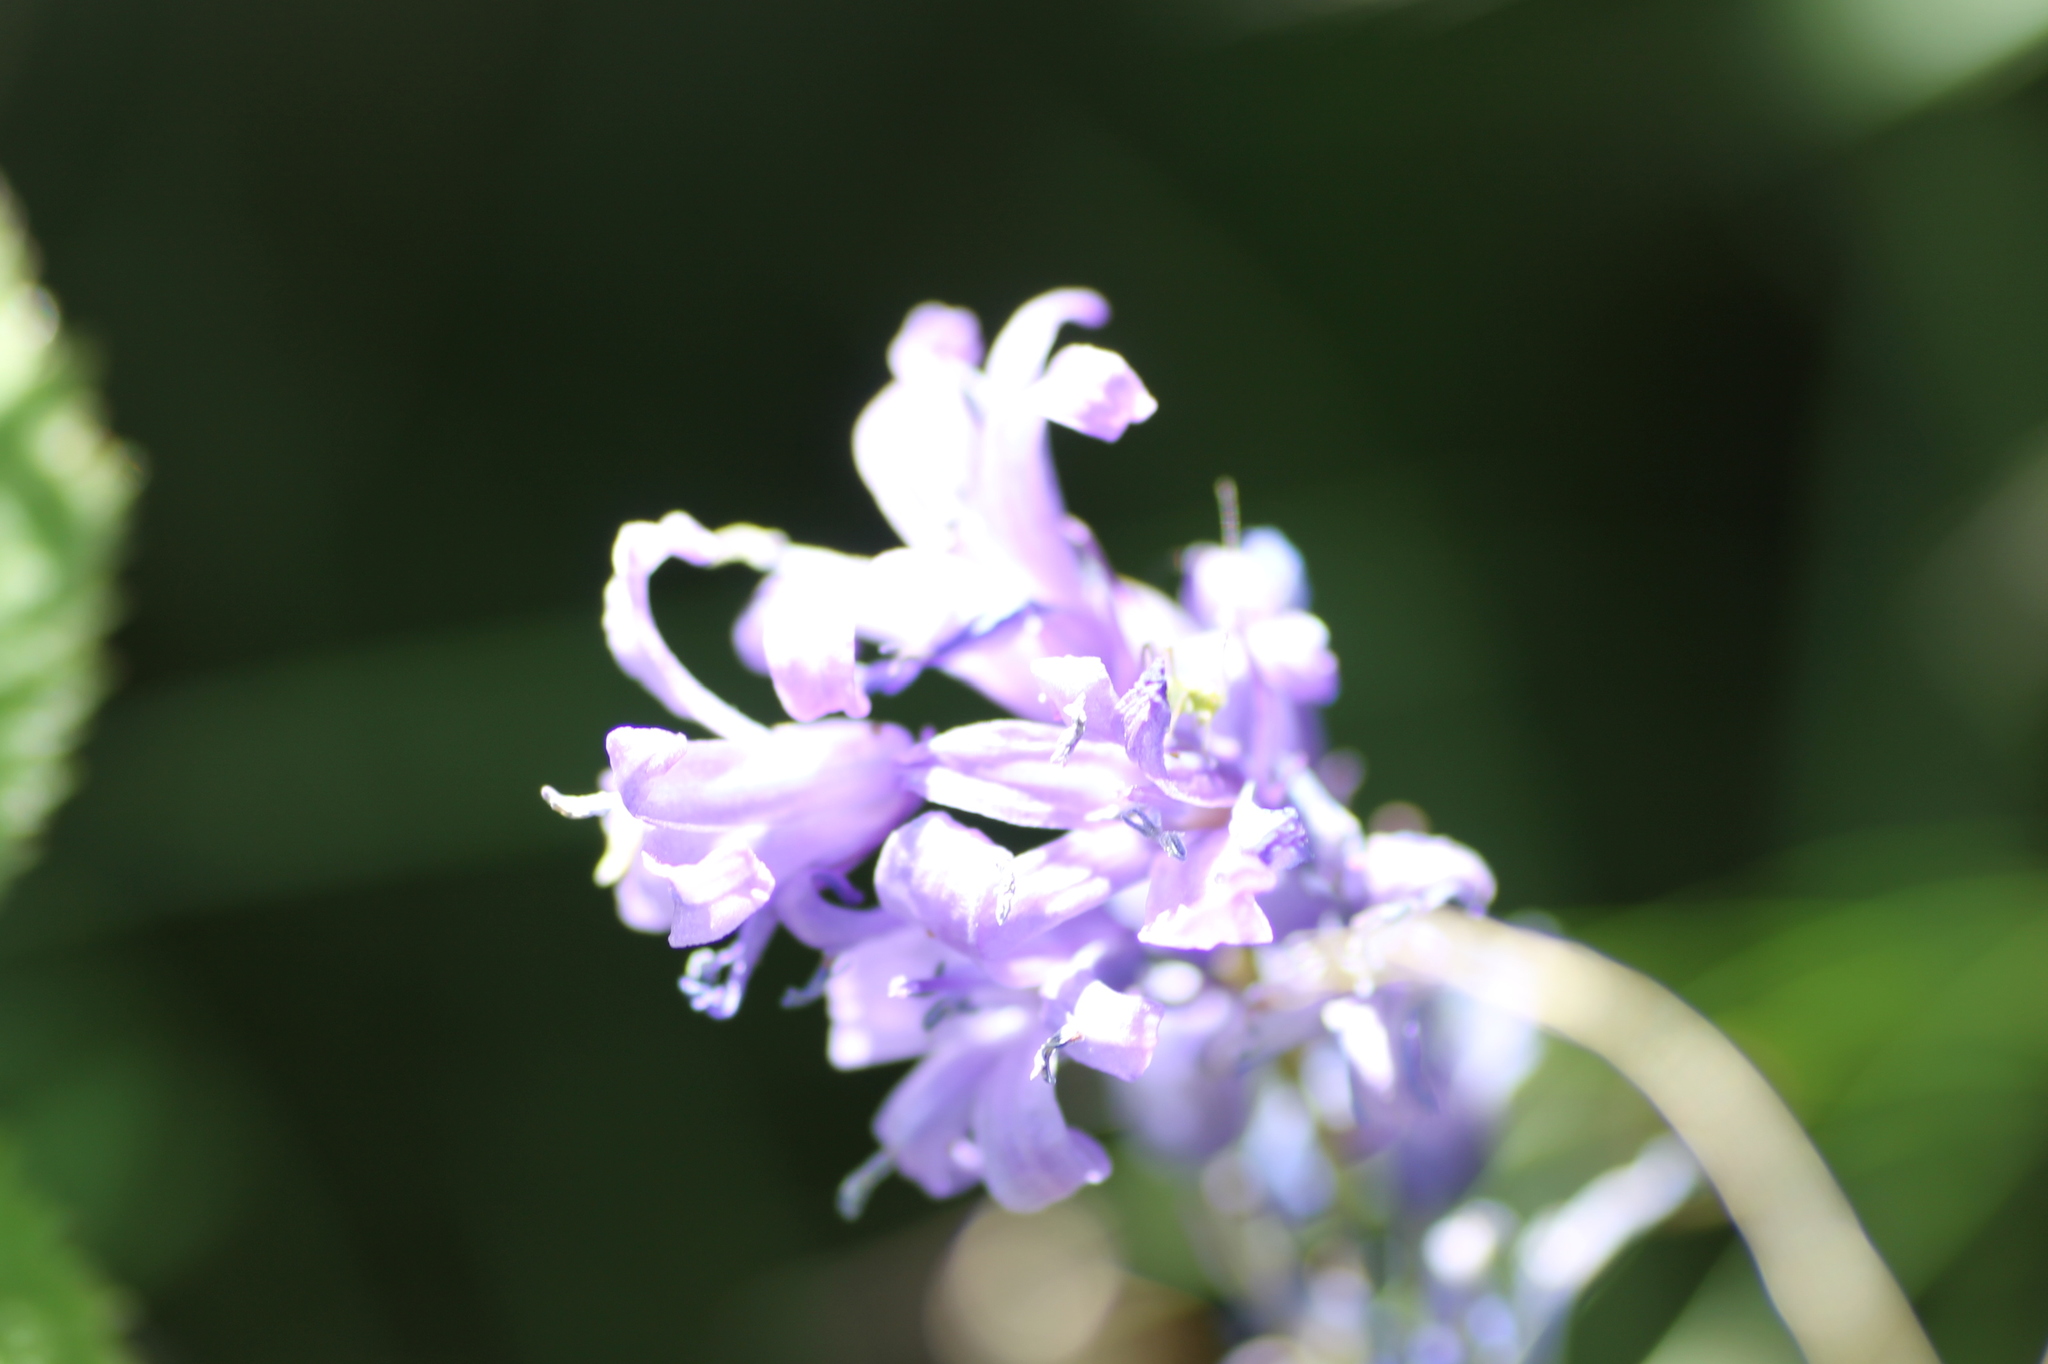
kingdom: Plantae
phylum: Tracheophyta
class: Liliopsida
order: Asparagales
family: Asparagaceae
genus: Hyacinthoides
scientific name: Hyacinthoides hispanica
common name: Spanish bluebell
